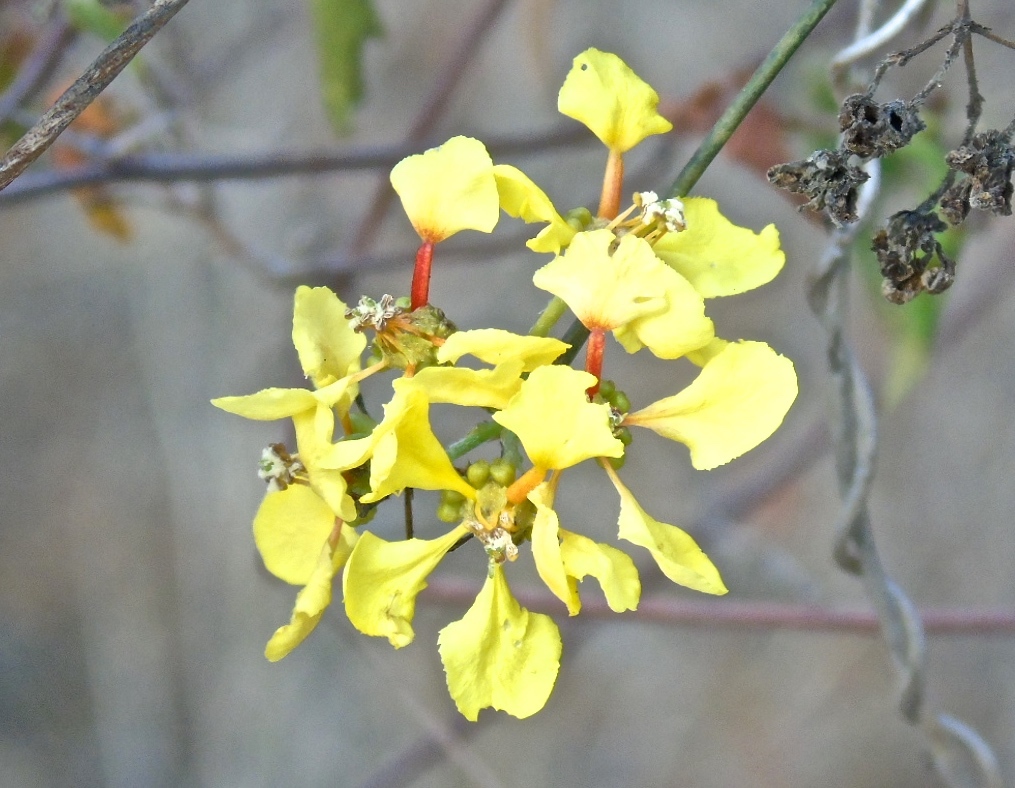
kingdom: Plantae
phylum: Tracheophyta
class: Magnoliopsida
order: Malpighiales
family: Malpighiaceae
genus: Callaeum
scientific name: Callaeum macropterum
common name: Mexican butterfly-vine
